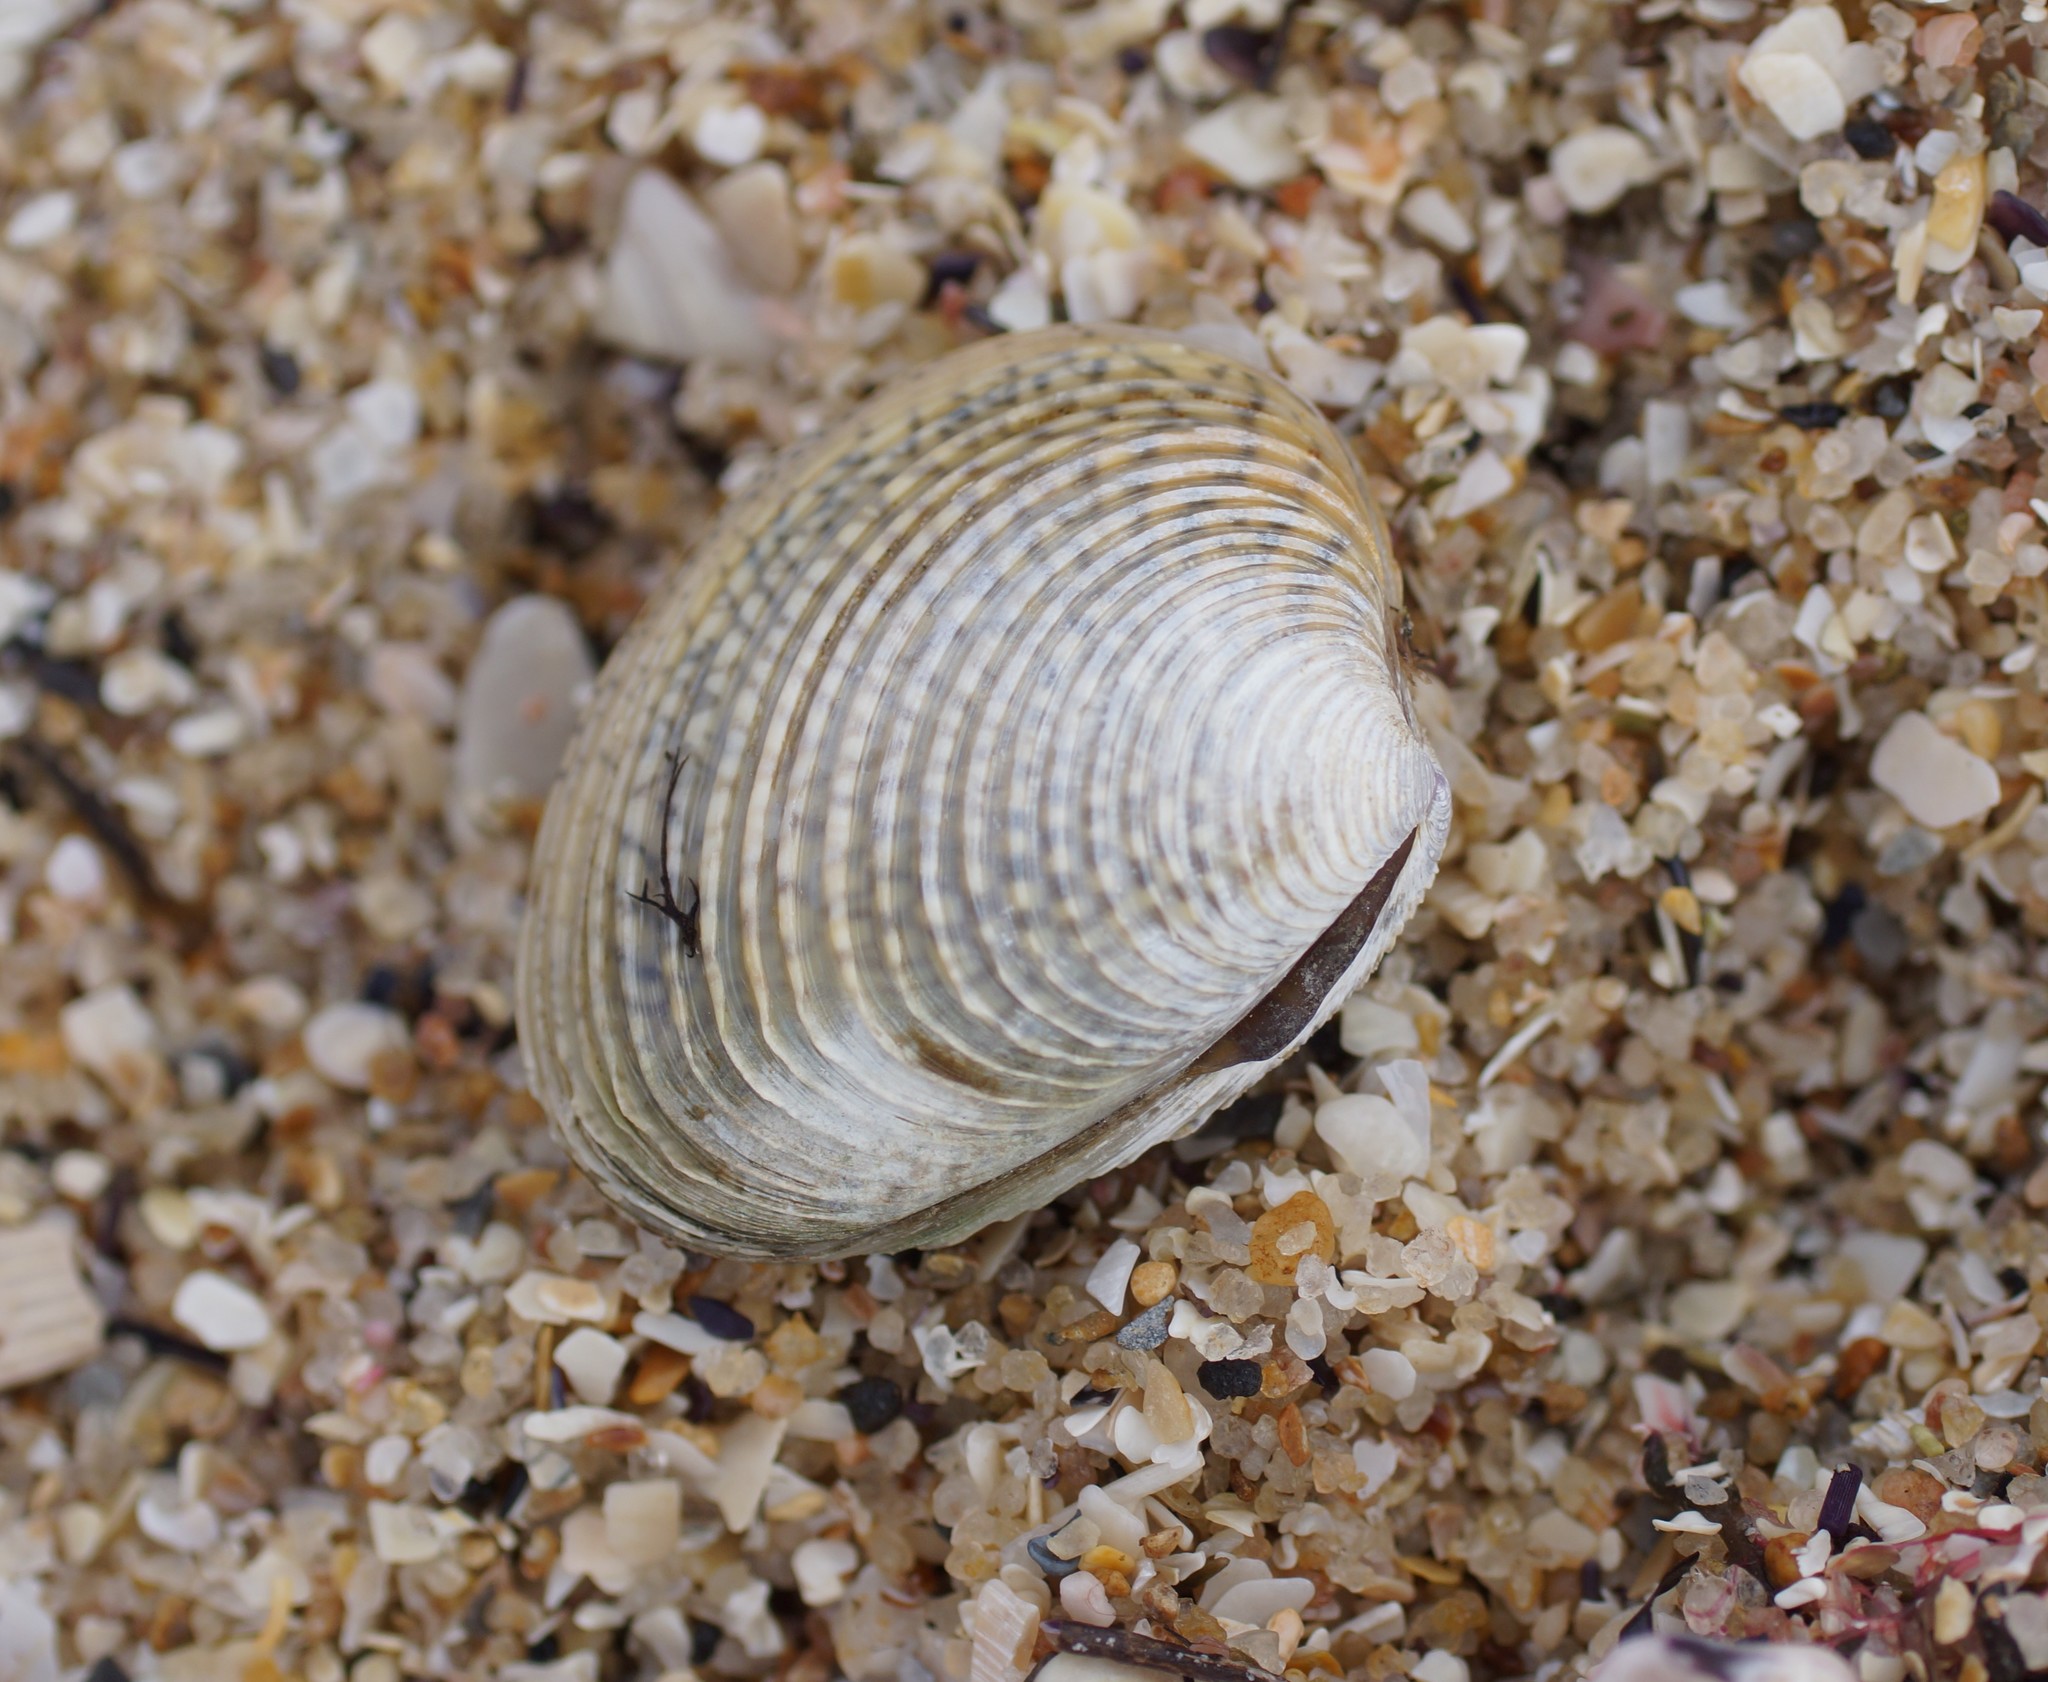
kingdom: Animalia
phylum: Mollusca
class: Bivalvia
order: Venerida
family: Veneridae
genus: Katelysia
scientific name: Katelysia scalarina
